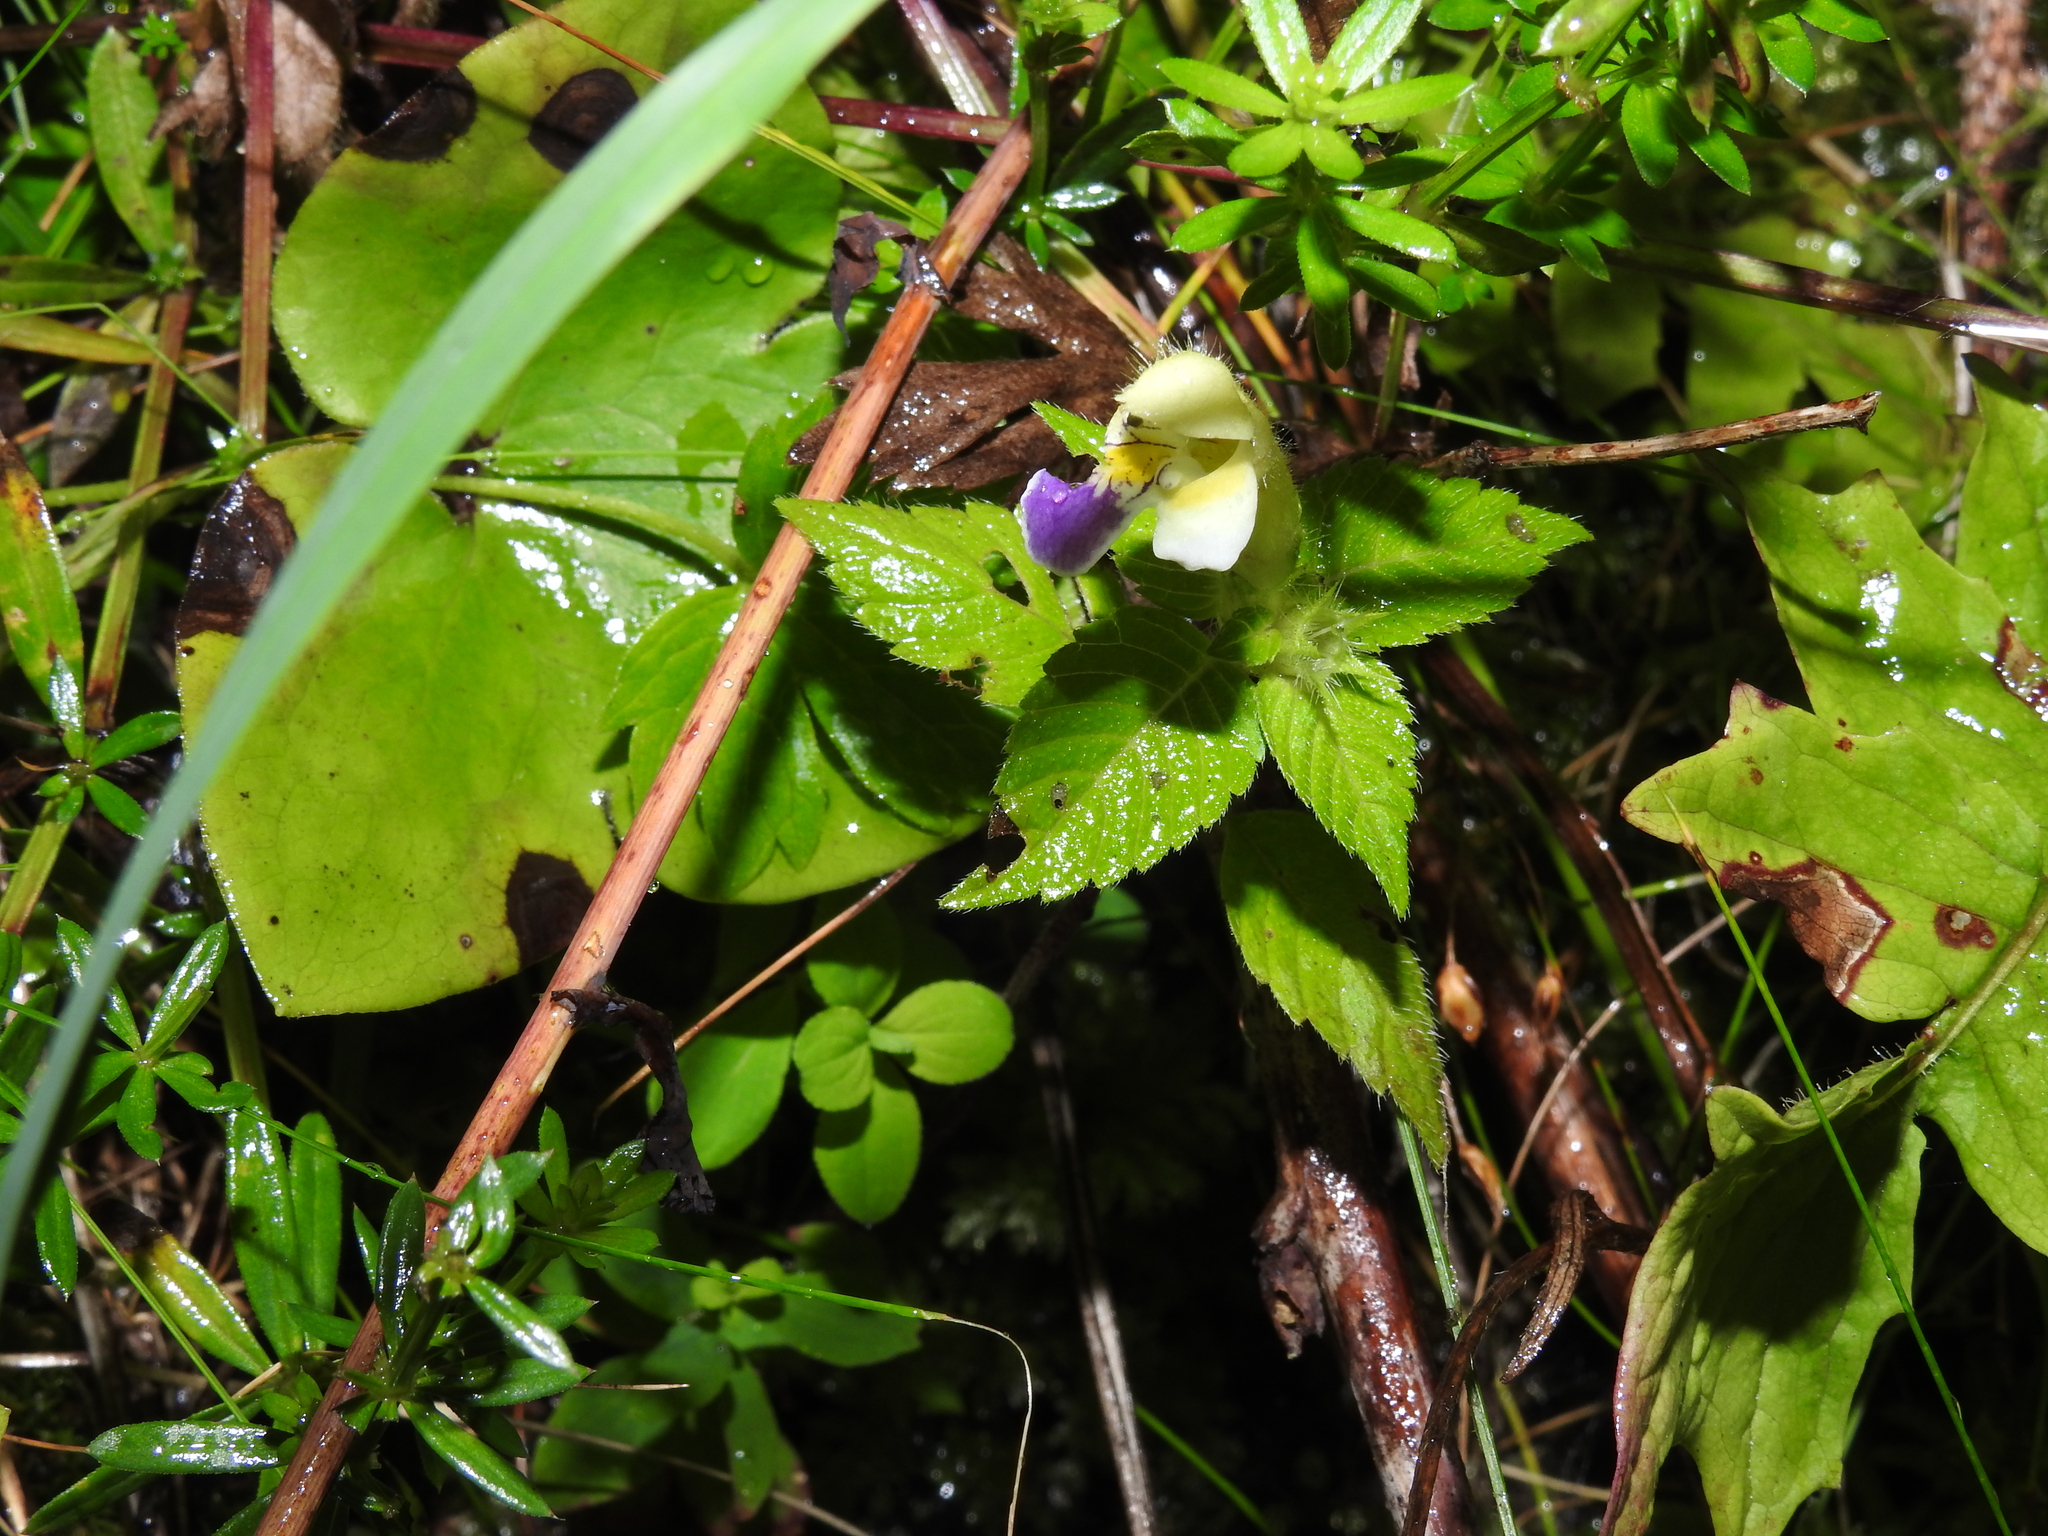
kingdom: Plantae
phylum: Tracheophyta
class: Magnoliopsida
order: Lamiales
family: Lamiaceae
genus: Galeopsis
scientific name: Galeopsis speciosa
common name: Large-flowered hemp-nettle
